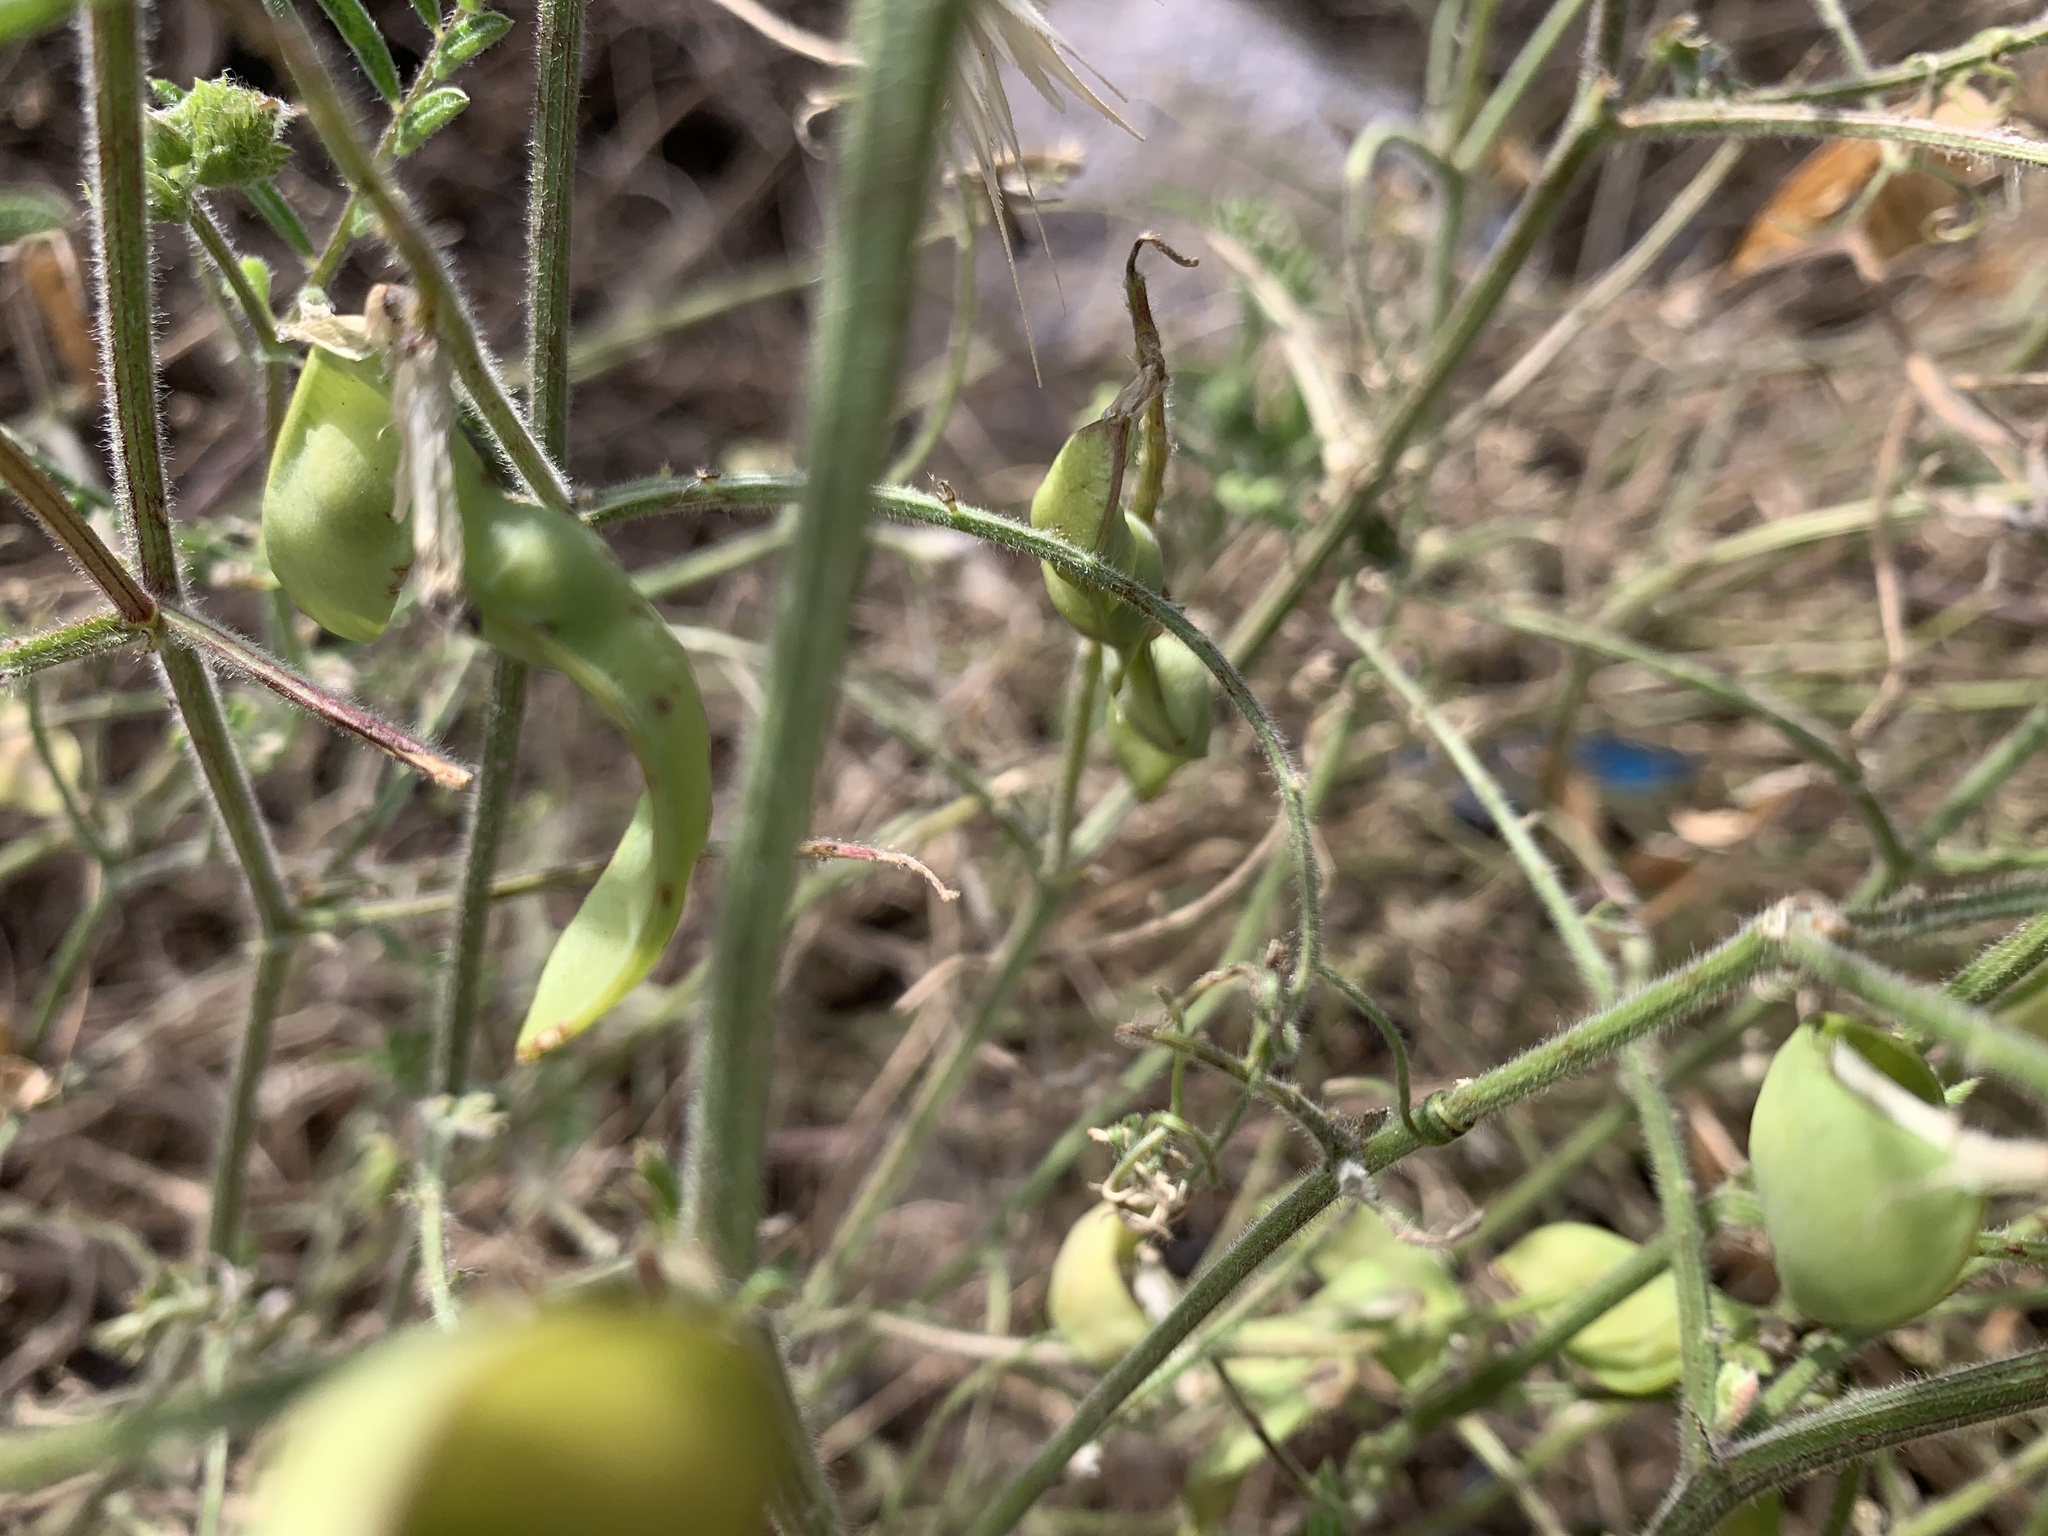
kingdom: Plantae
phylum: Tracheophyta
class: Magnoliopsida
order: Fabales
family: Fabaceae
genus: Vicia
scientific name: Vicia villosa
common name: Fodder vetch
